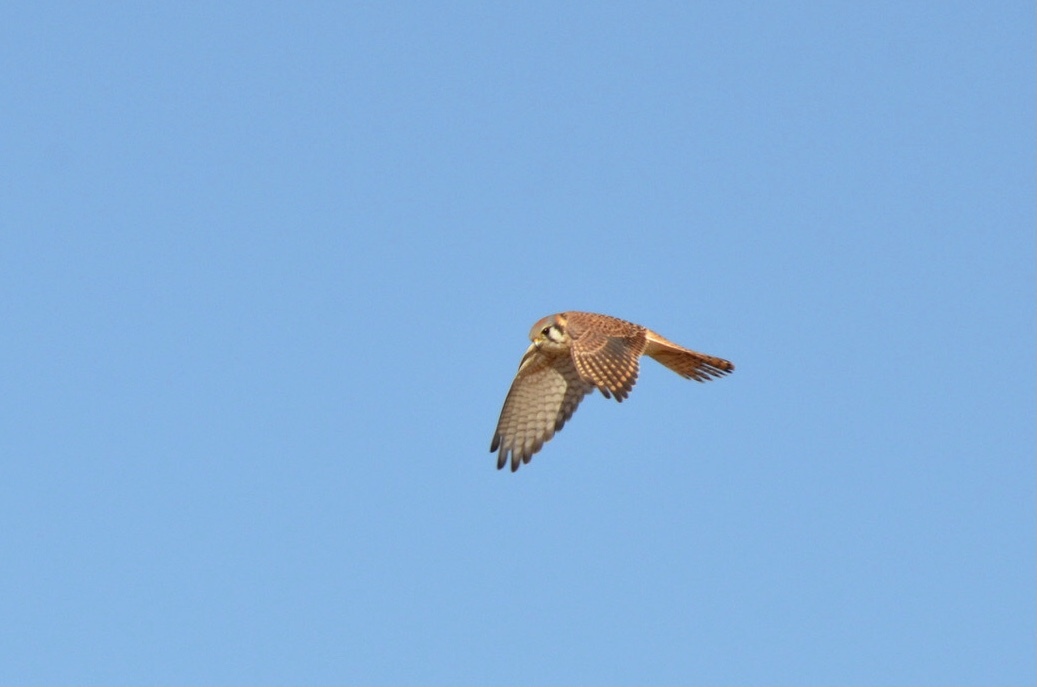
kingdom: Animalia
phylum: Chordata
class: Aves
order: Falconiformes
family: Falconidae
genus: Falco
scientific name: Falco sparverius
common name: American kestrel
